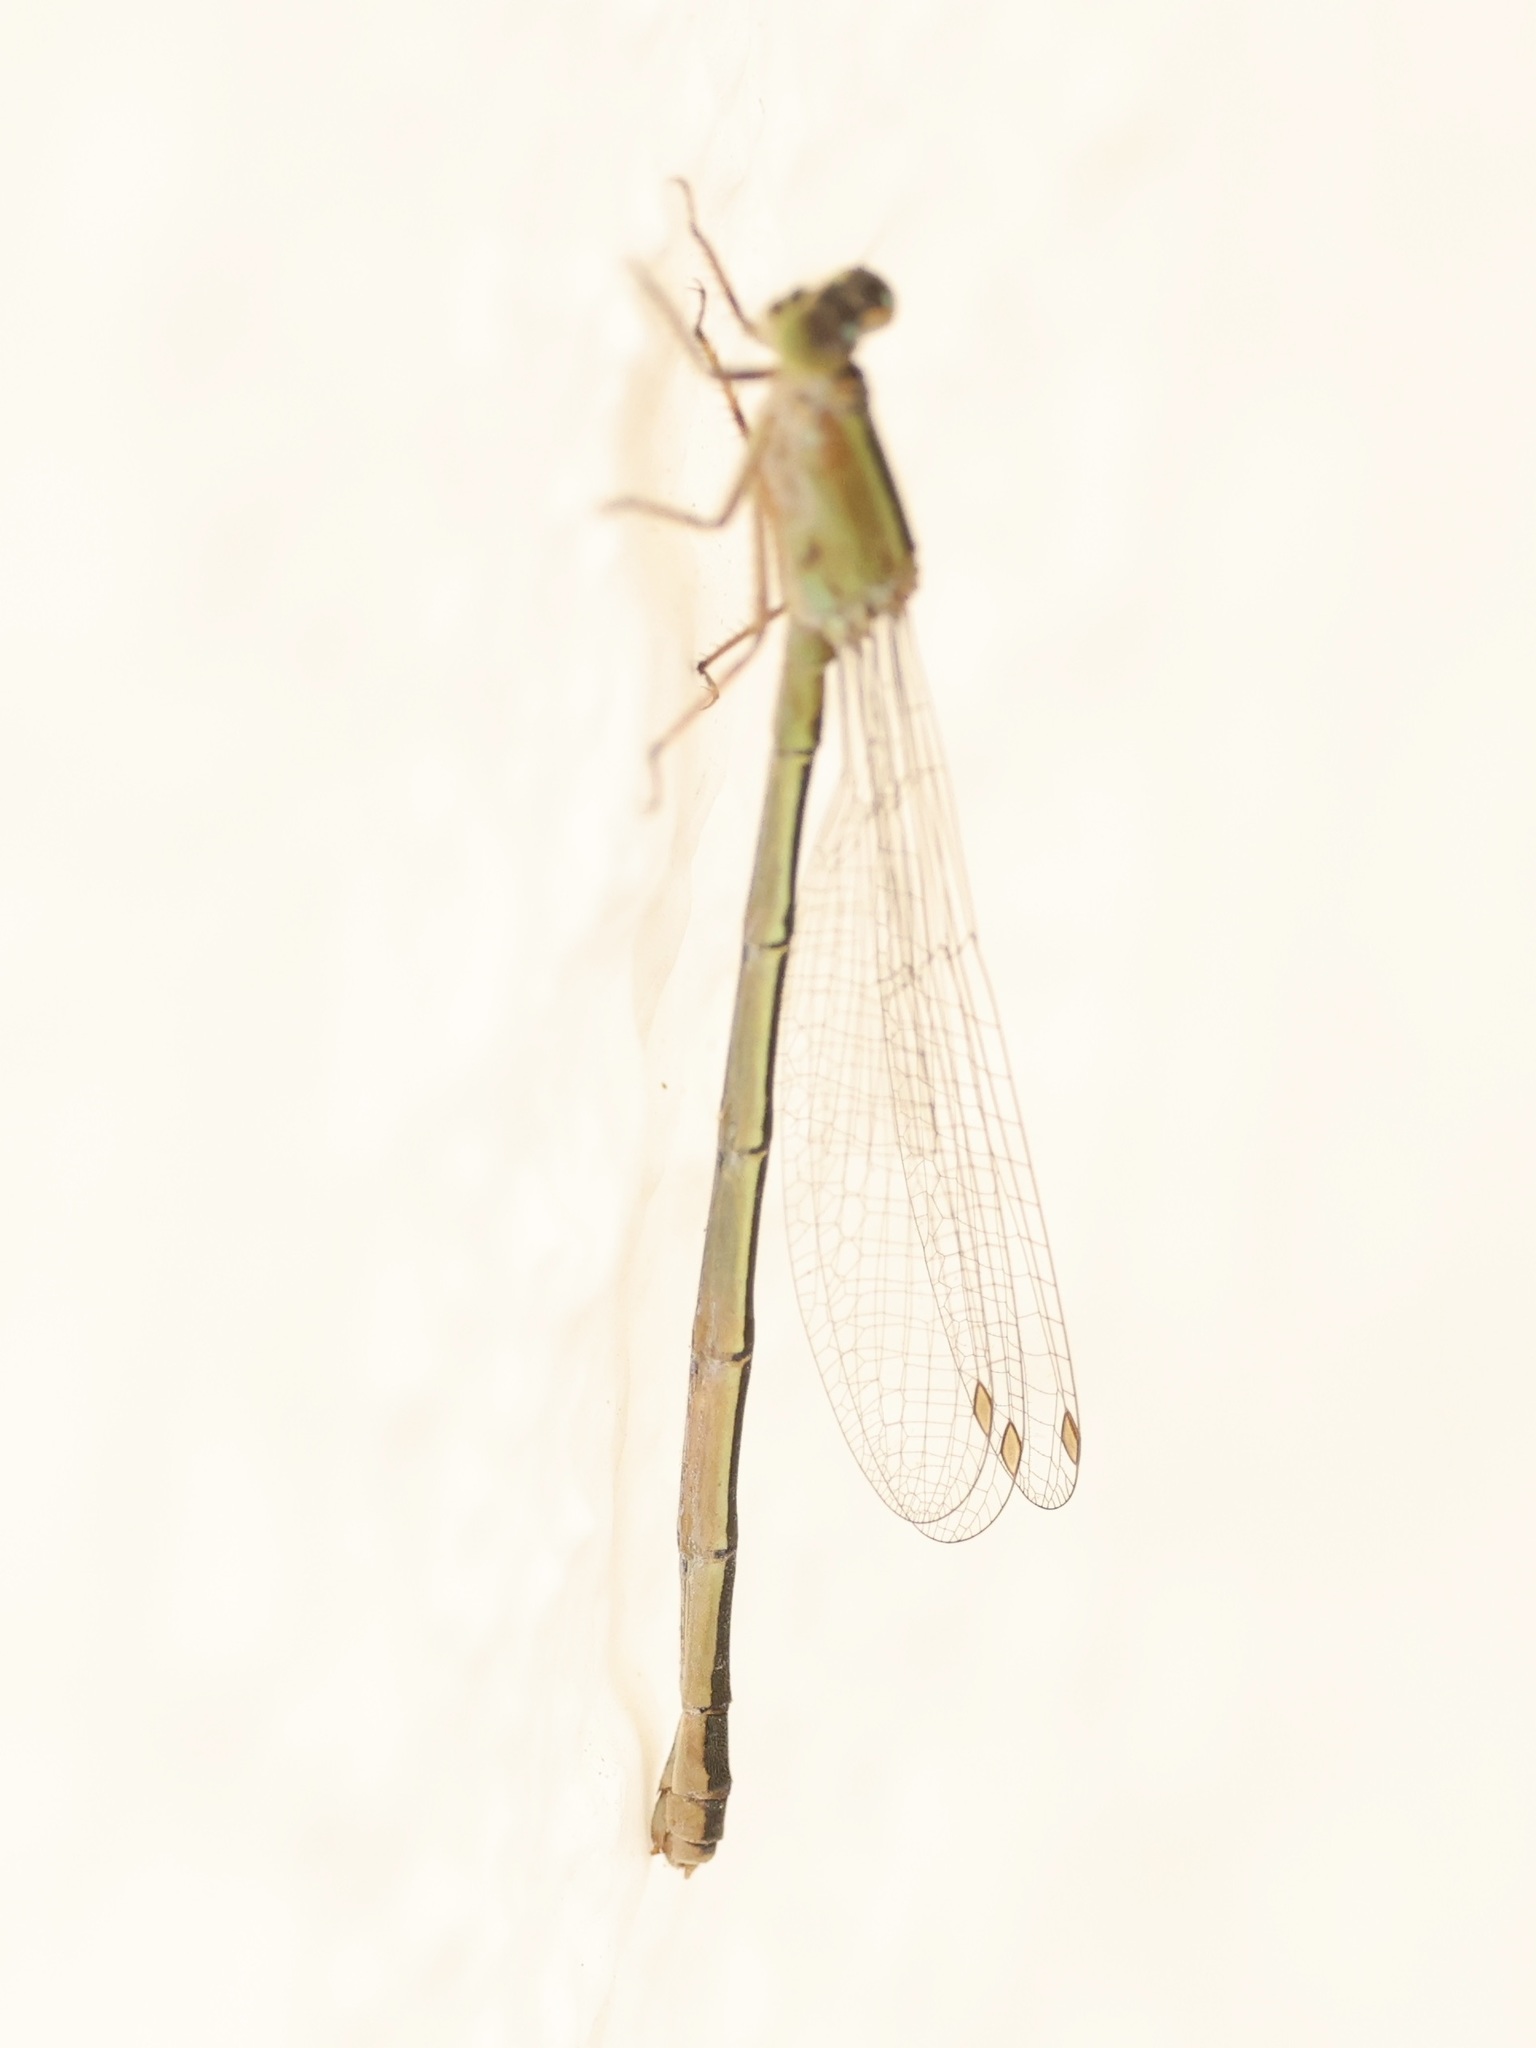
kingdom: Animalia
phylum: Arthropoda
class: Insecta
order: Odonata
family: Coenagrionidae
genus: Ischnura
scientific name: Ischnura ramburii
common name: Rambur's forktail
